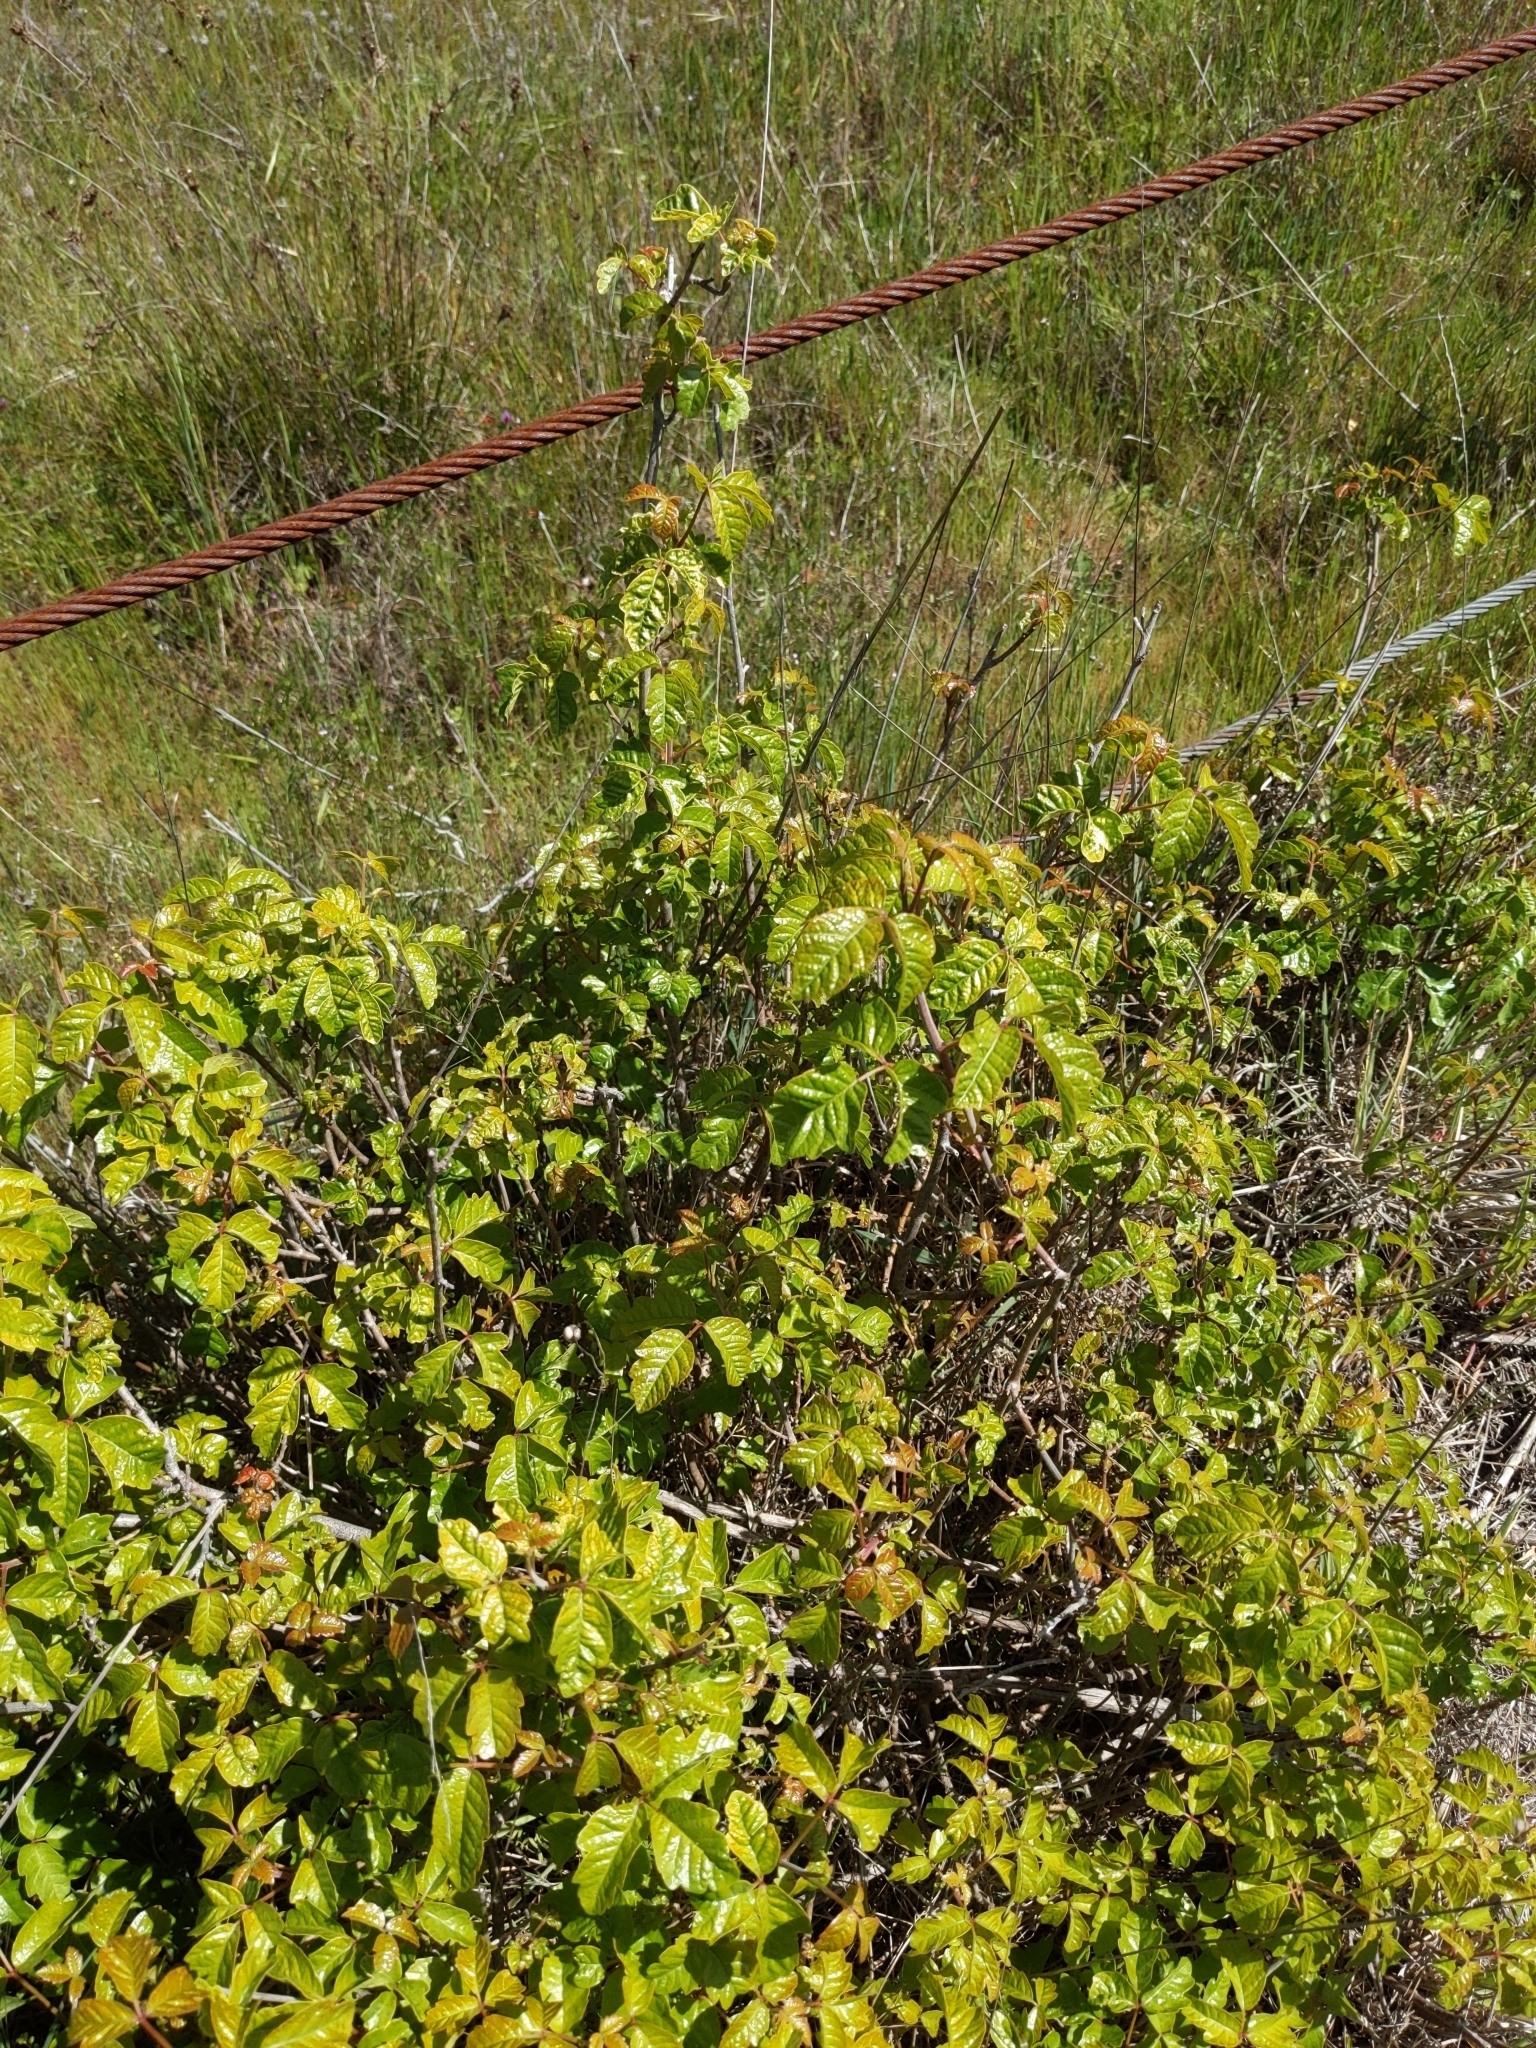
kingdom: Plantae
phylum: Tracheophyta
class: Magnoliopsida
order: Sapindales
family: Anacardiaceae
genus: Toxicodendron
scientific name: Toxicodendron diversilobum
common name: Pacific poison-oak
